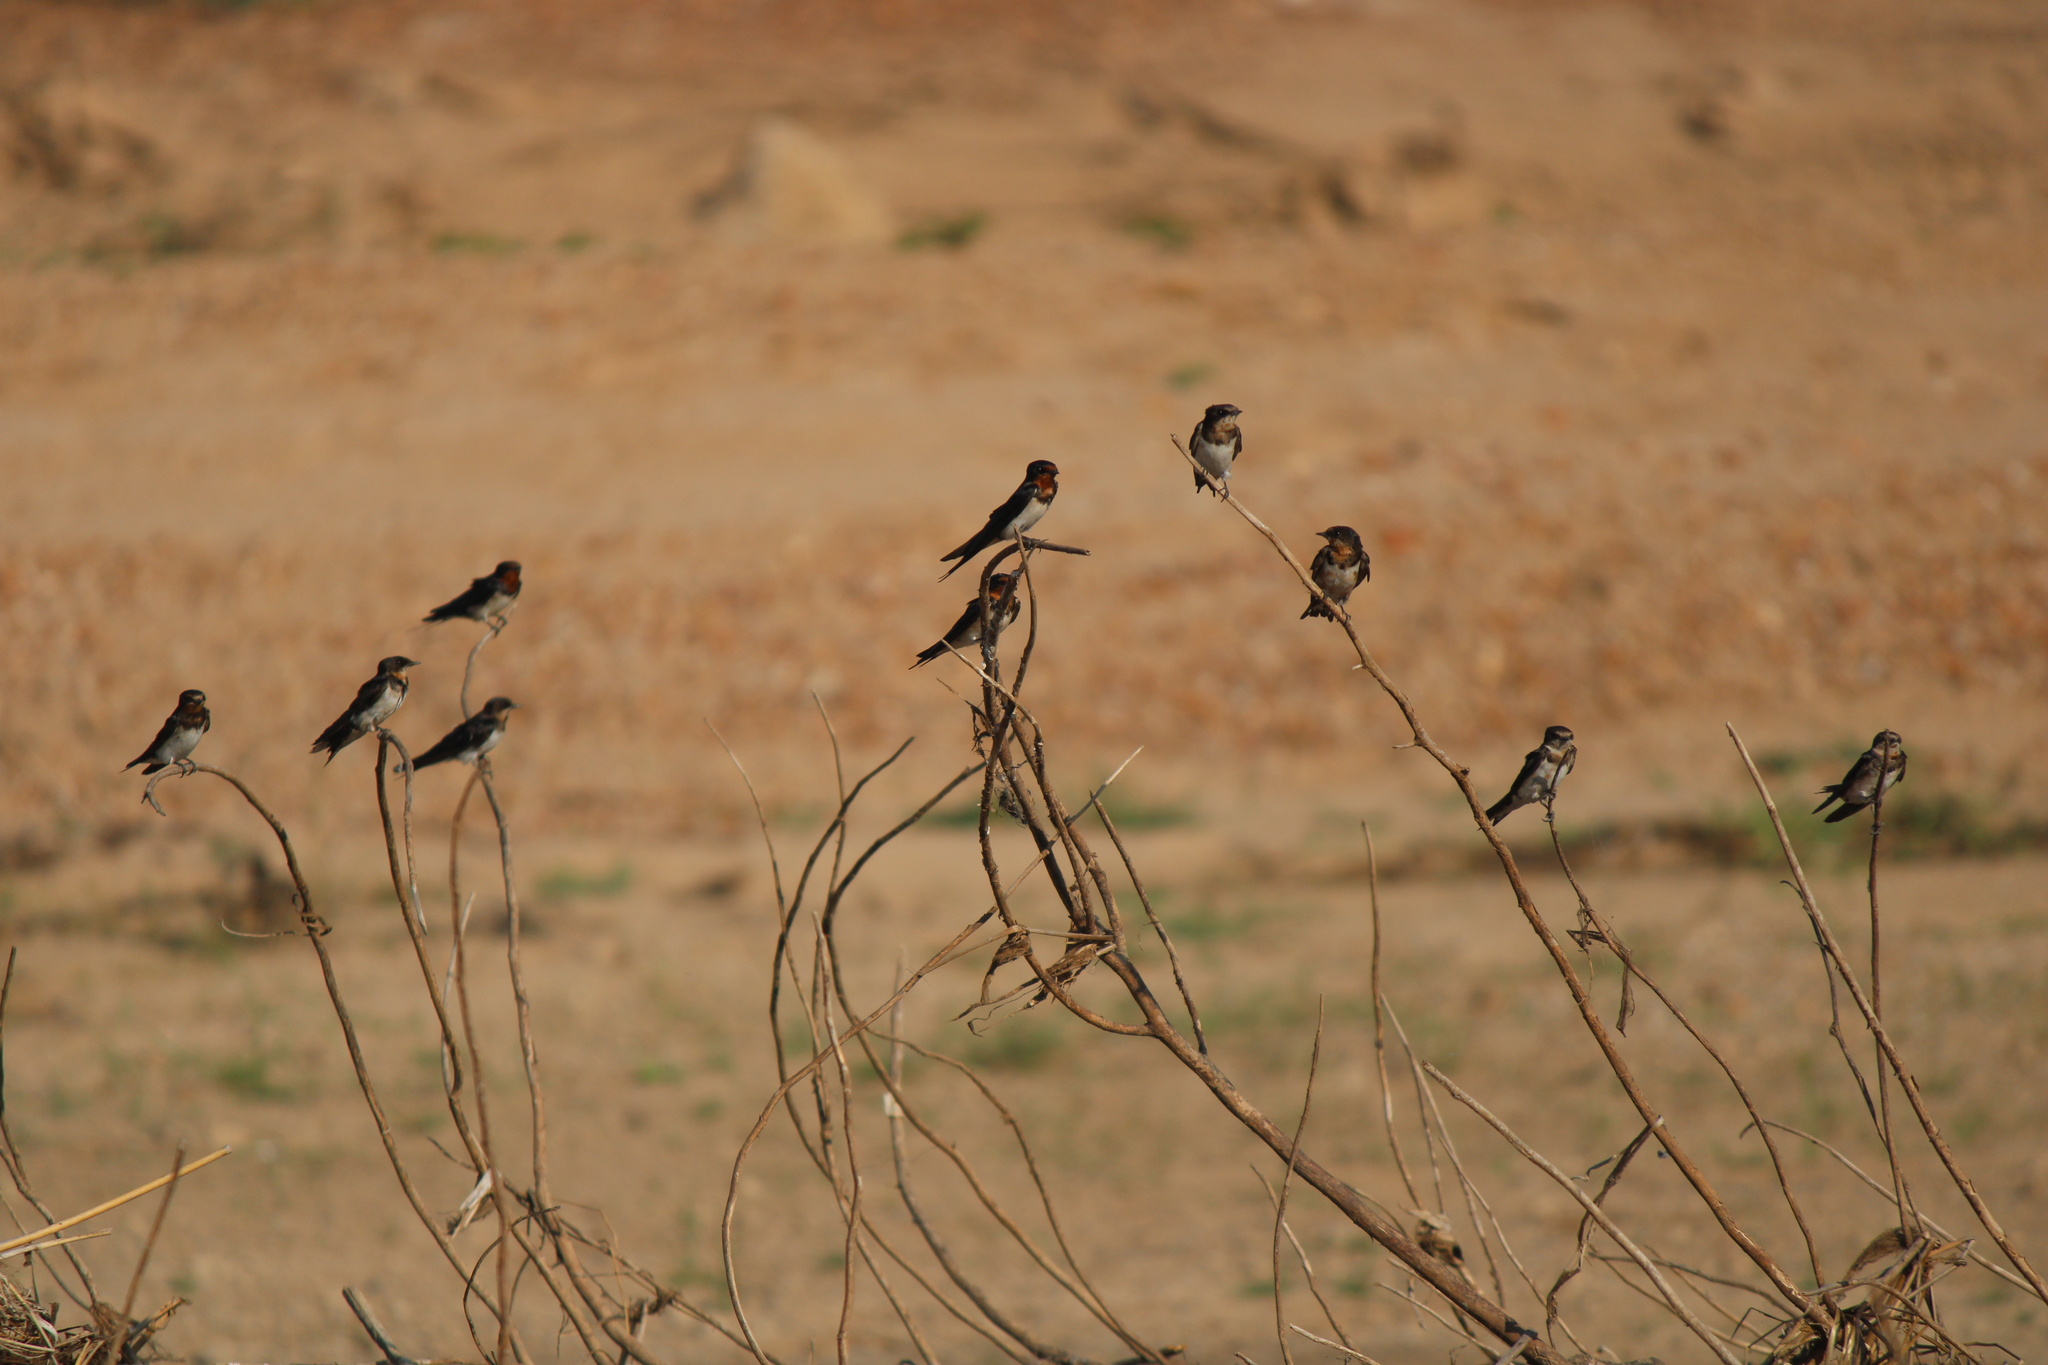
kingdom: Animalia
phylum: Chordata
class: Aves
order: Passeriformes
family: Hirundinidae
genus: Hirundo
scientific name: Hirundo rustica
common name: Barn swallow
